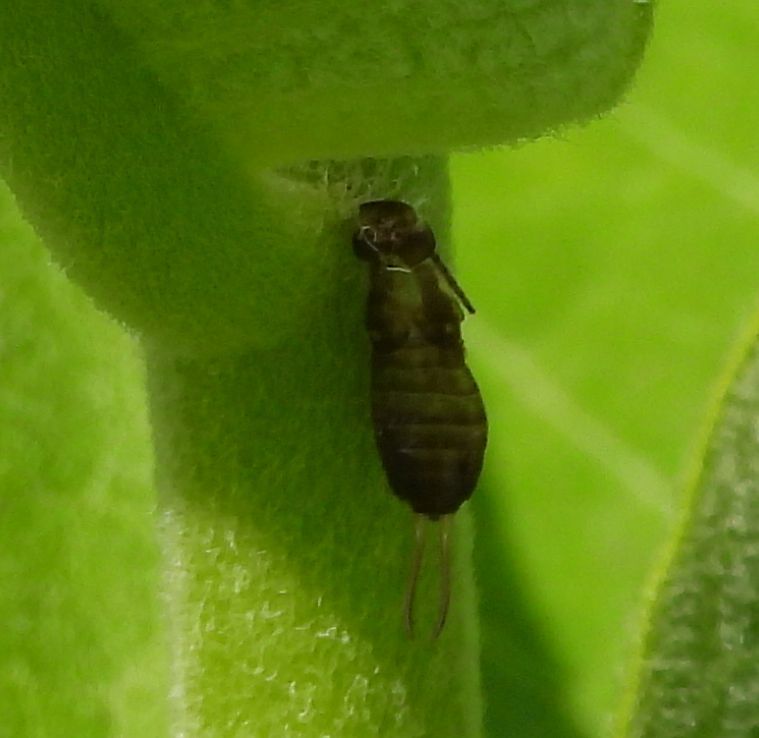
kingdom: Animalia
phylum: Arthropoda
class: Insecta
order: Dermaptera
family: Forficulidae
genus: Forficula
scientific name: Forficula
